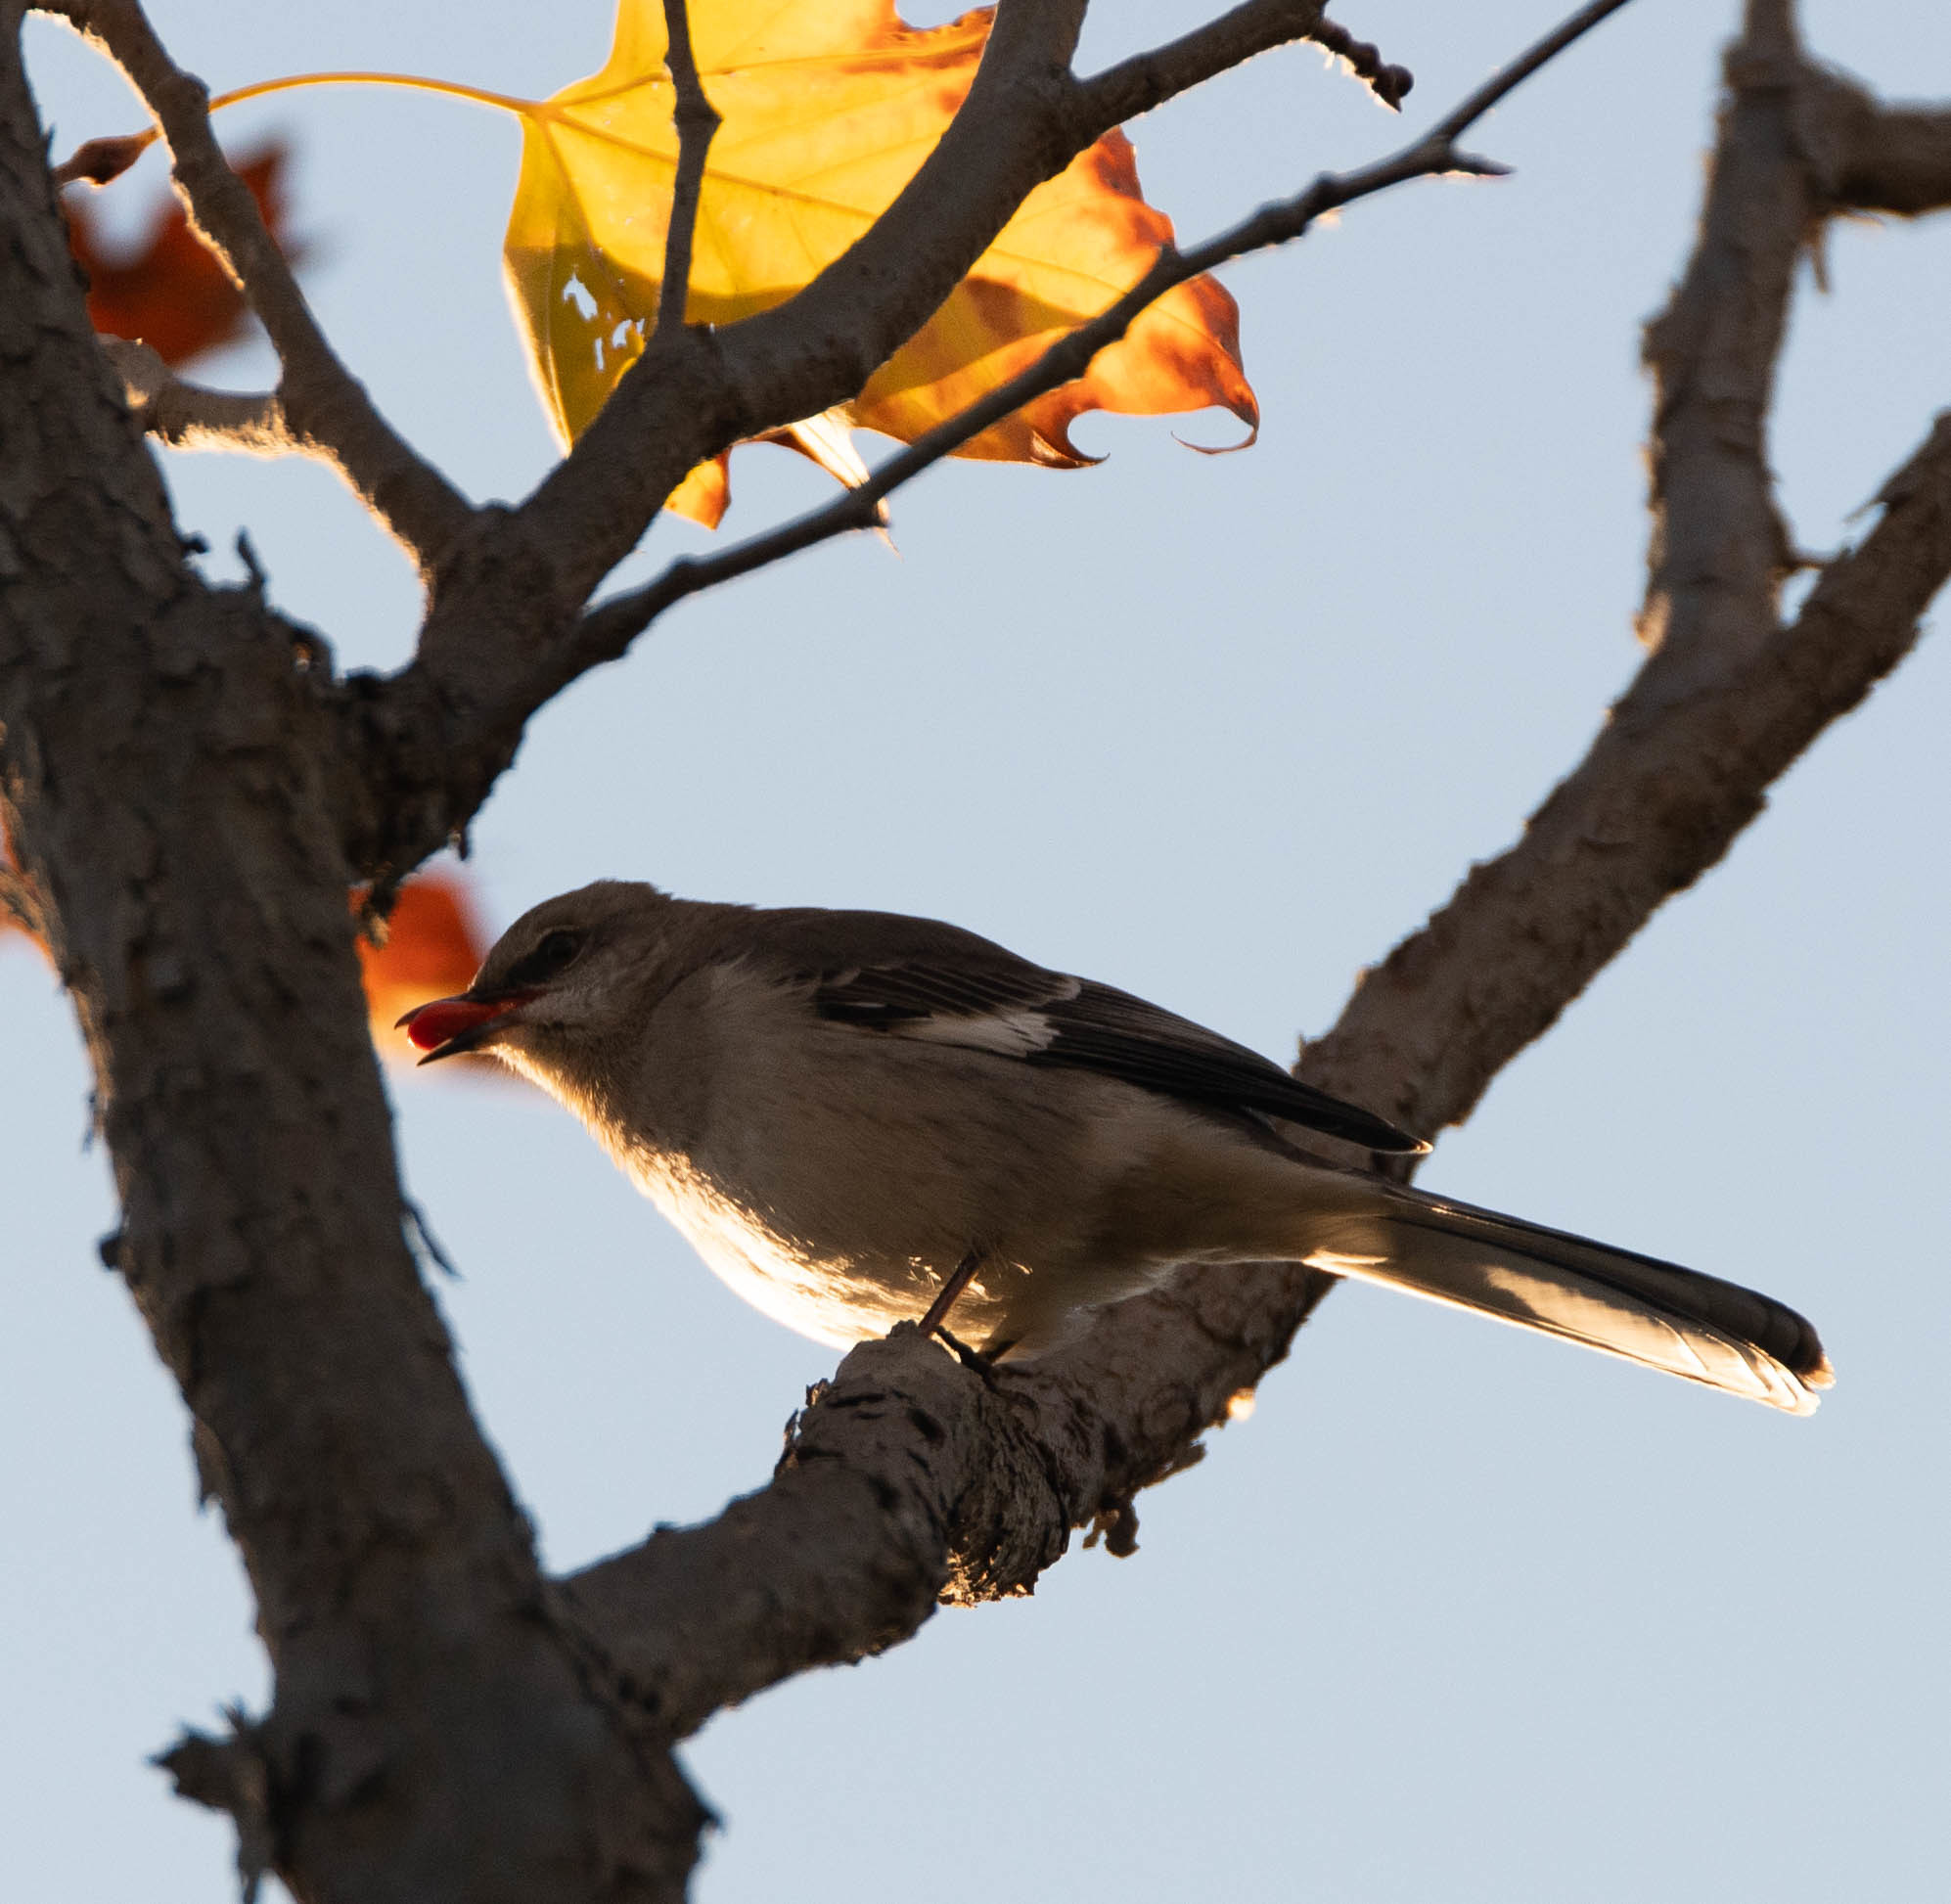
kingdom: Animalia
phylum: Chordata
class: Aves
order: Passeriformes
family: Mimidae
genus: Mimus
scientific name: Mimus polyglottos
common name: Northern mockingbird
